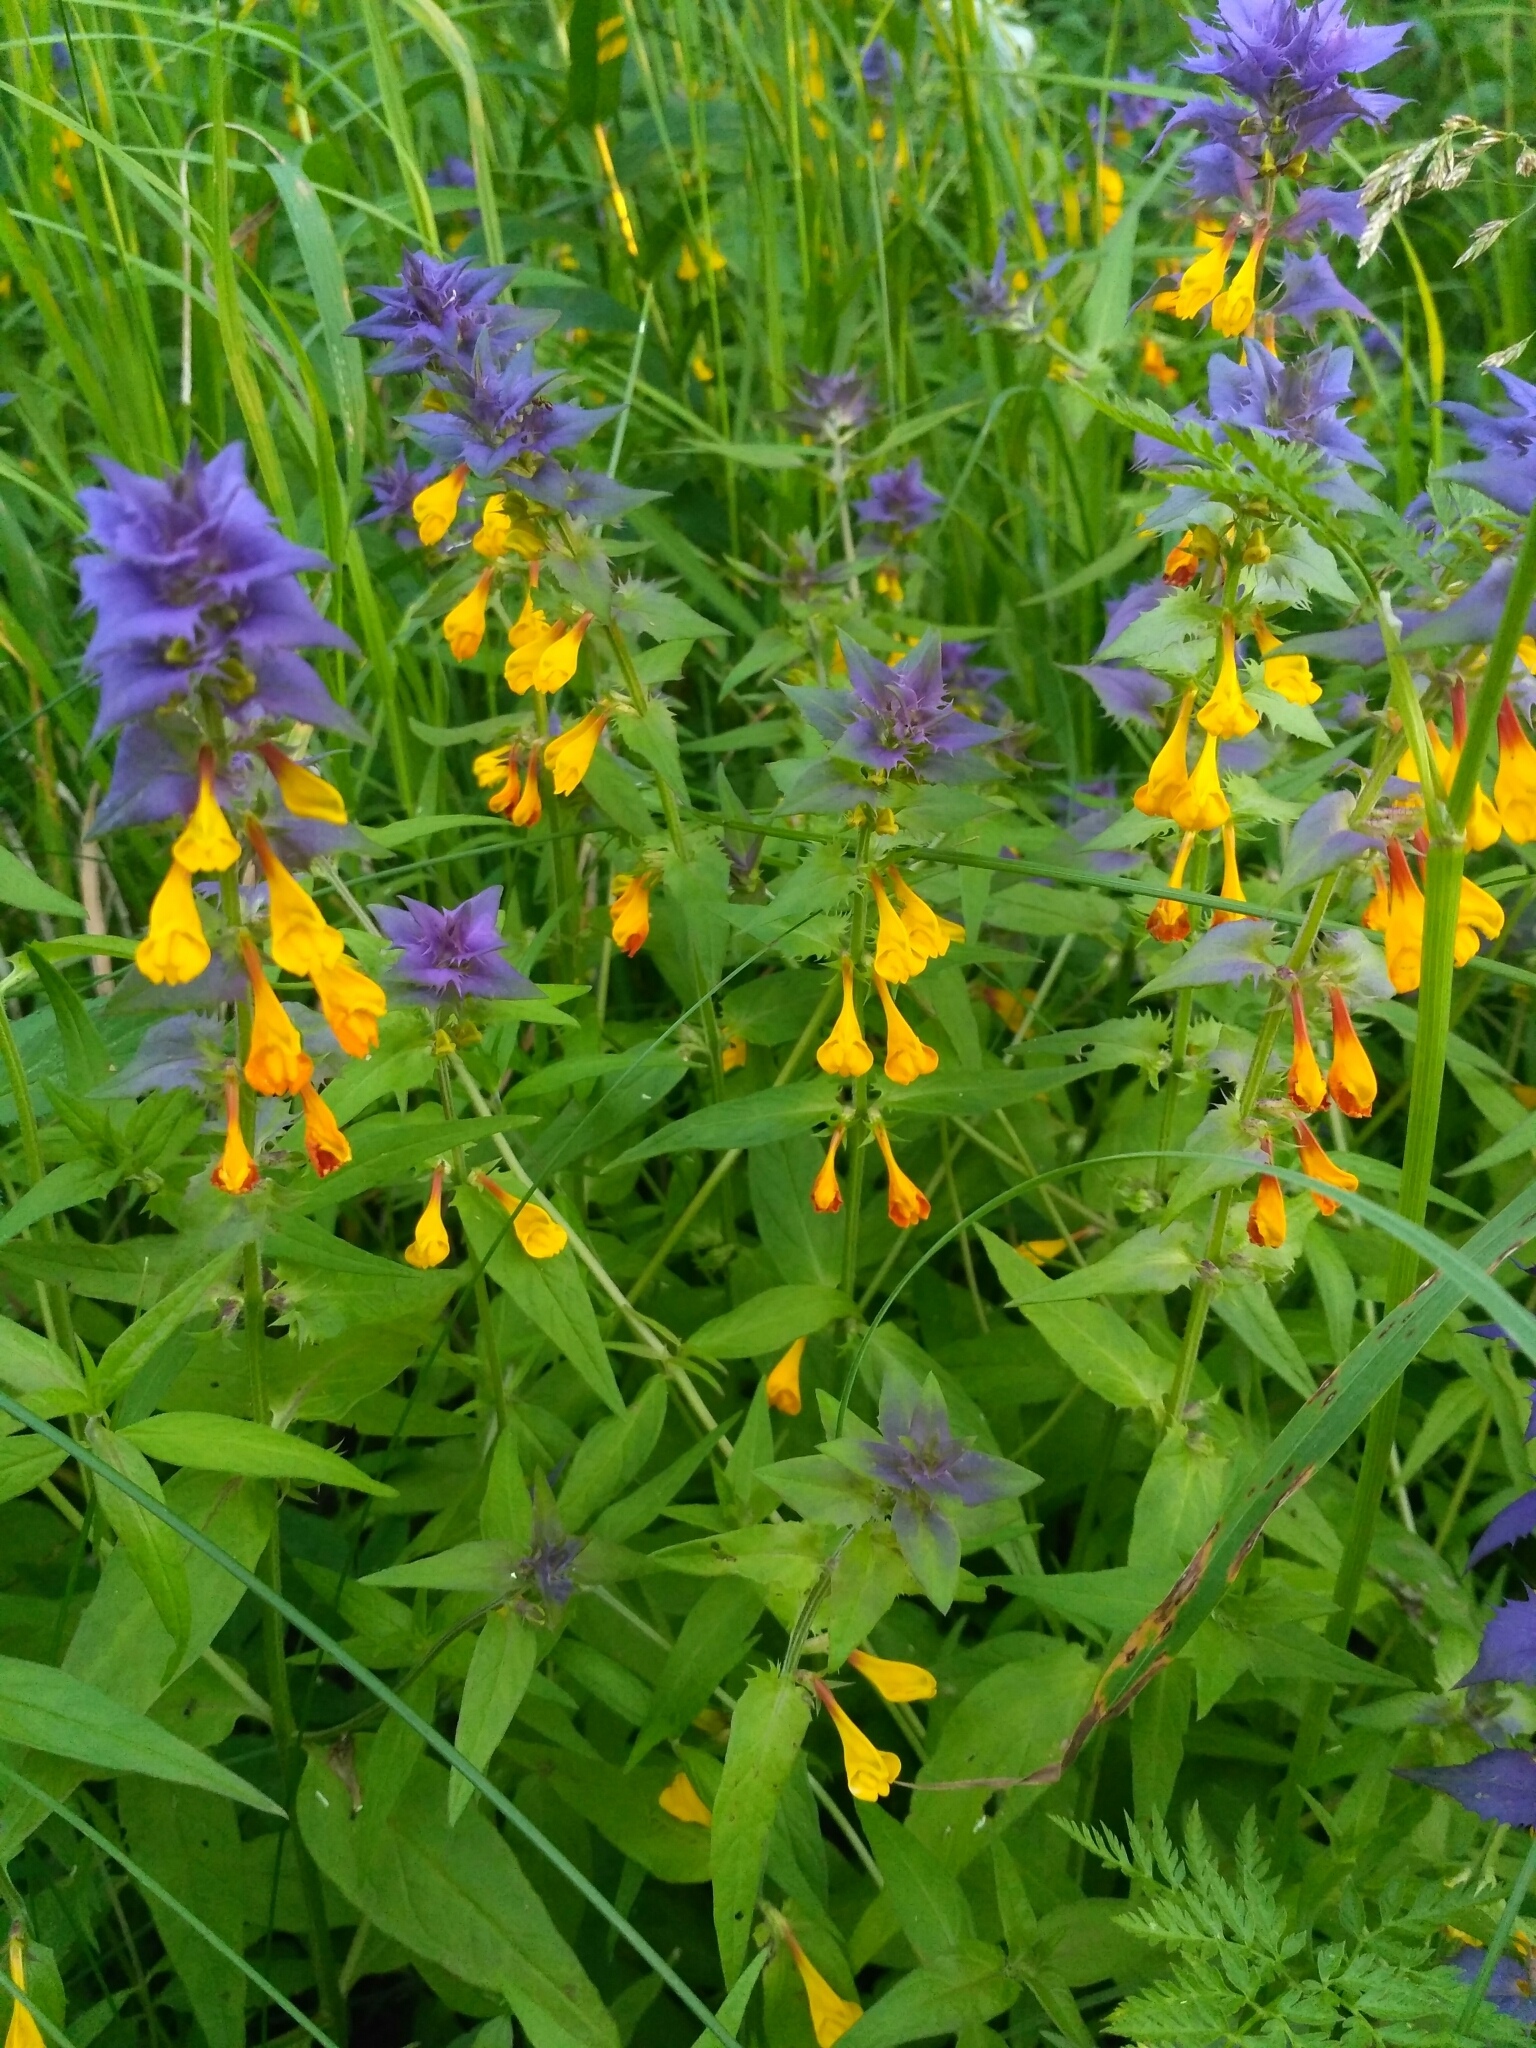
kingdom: Plantae
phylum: Tracheophyta
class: Magnoliopsida
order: Lamiales
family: Orobanchaceae
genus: Melampyrum
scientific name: Melampyrum nemorosum
